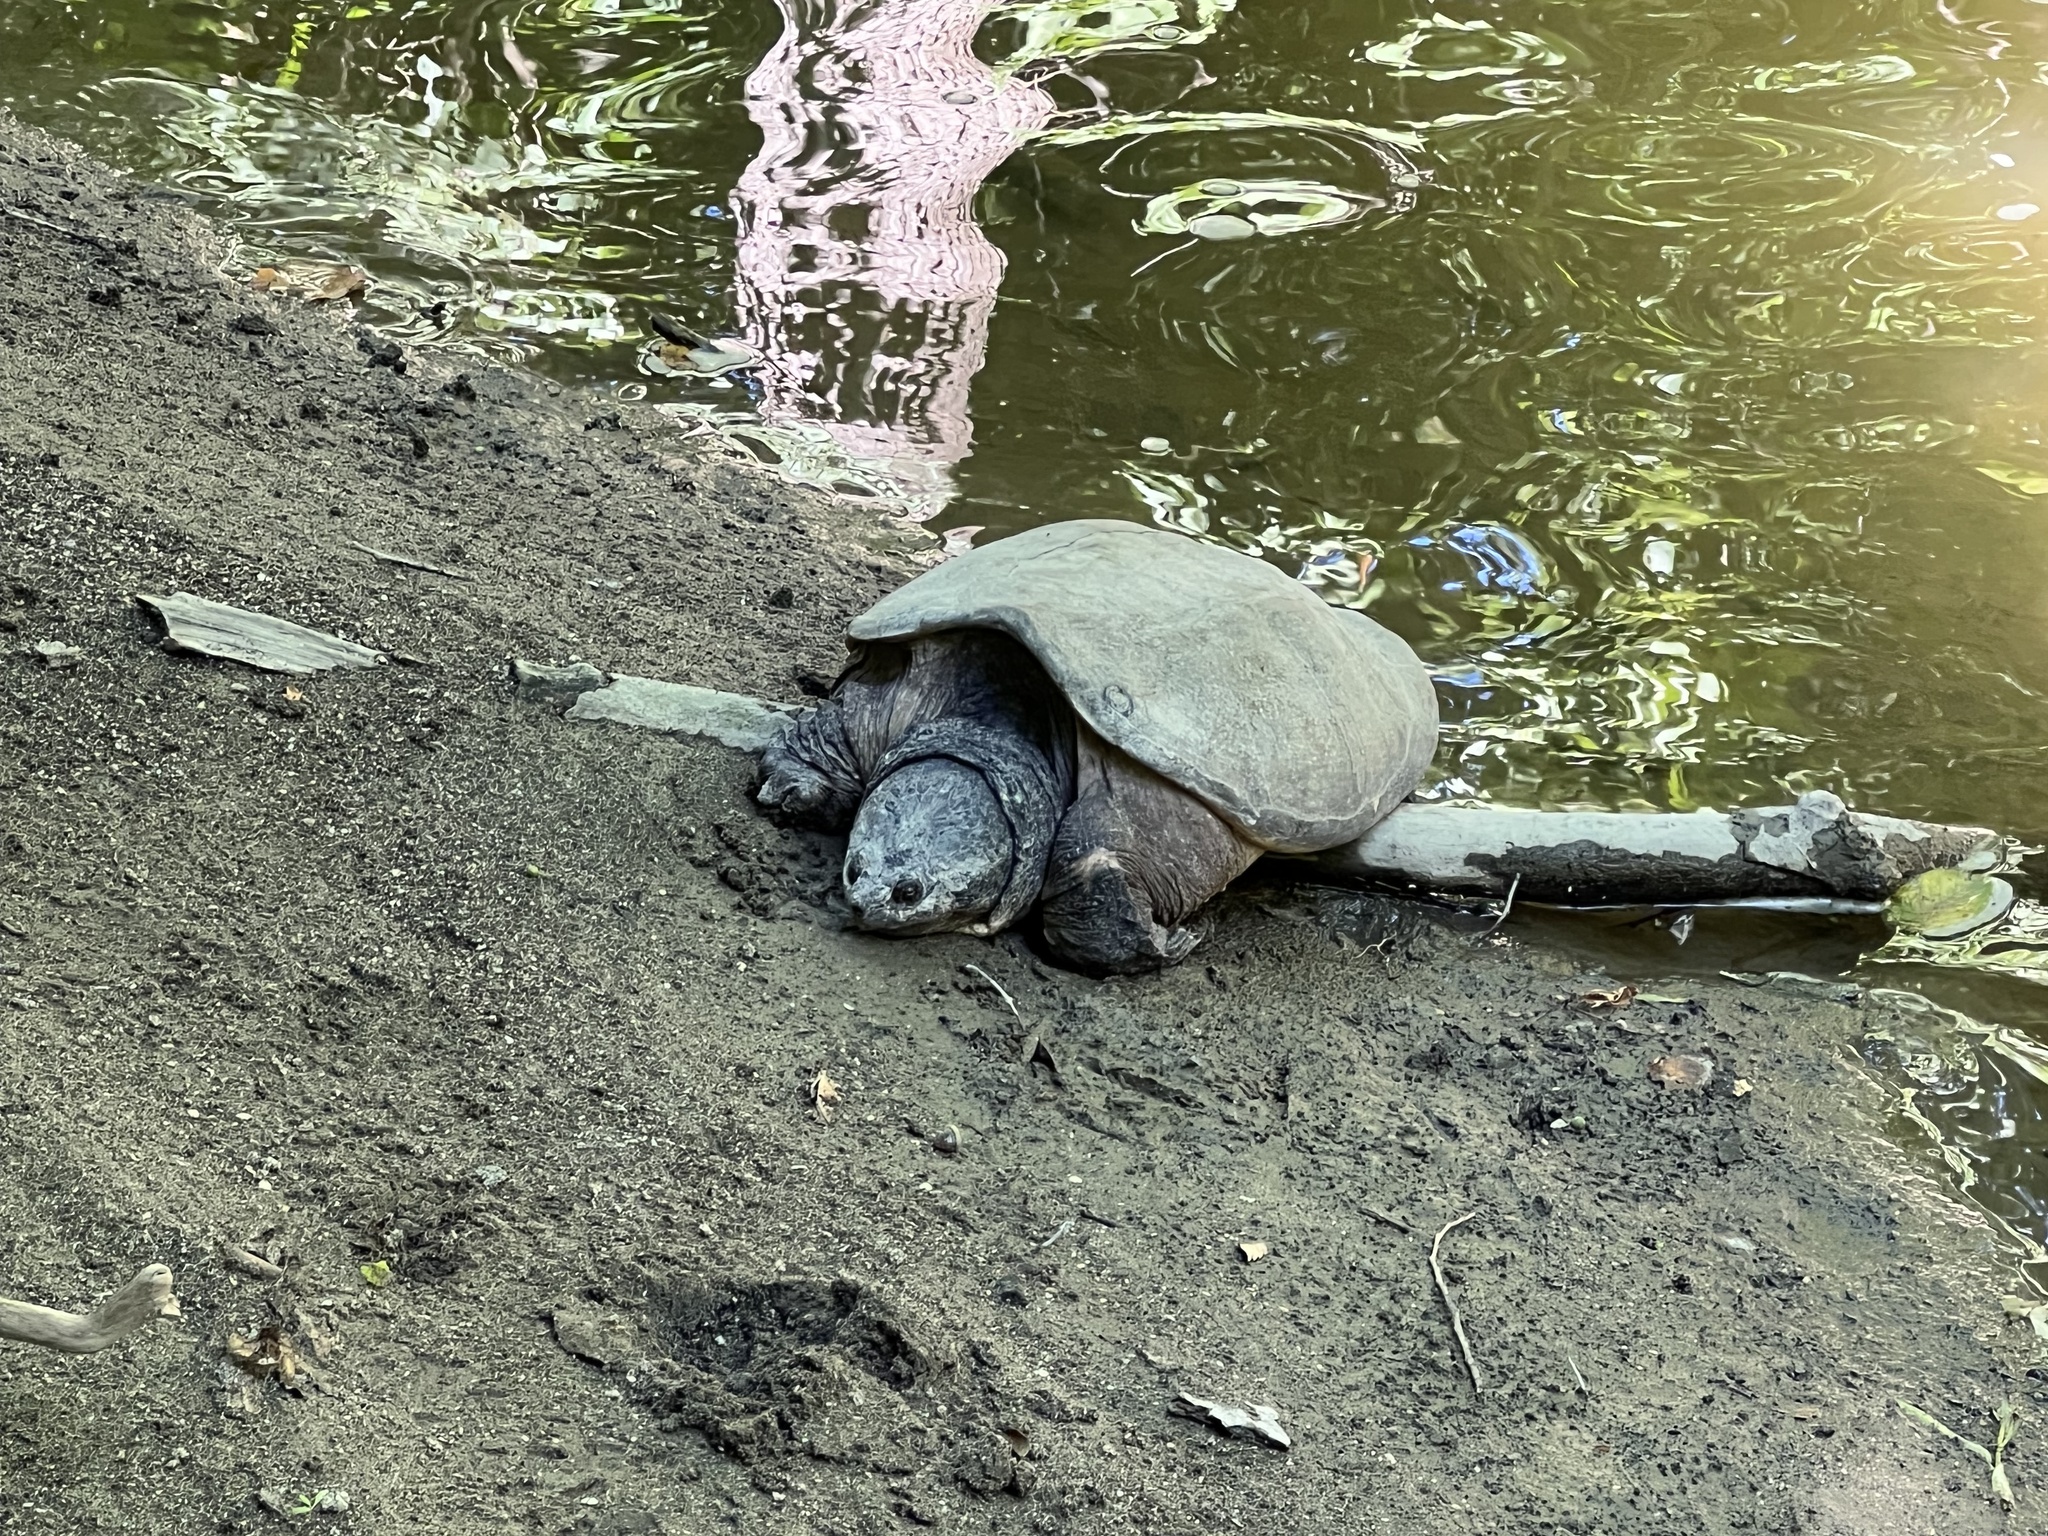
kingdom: Animalia
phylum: Chordata
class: Testudines
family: Chelydridae
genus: Chelydra
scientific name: Chelydra serpentina
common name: Common snapping turtle
